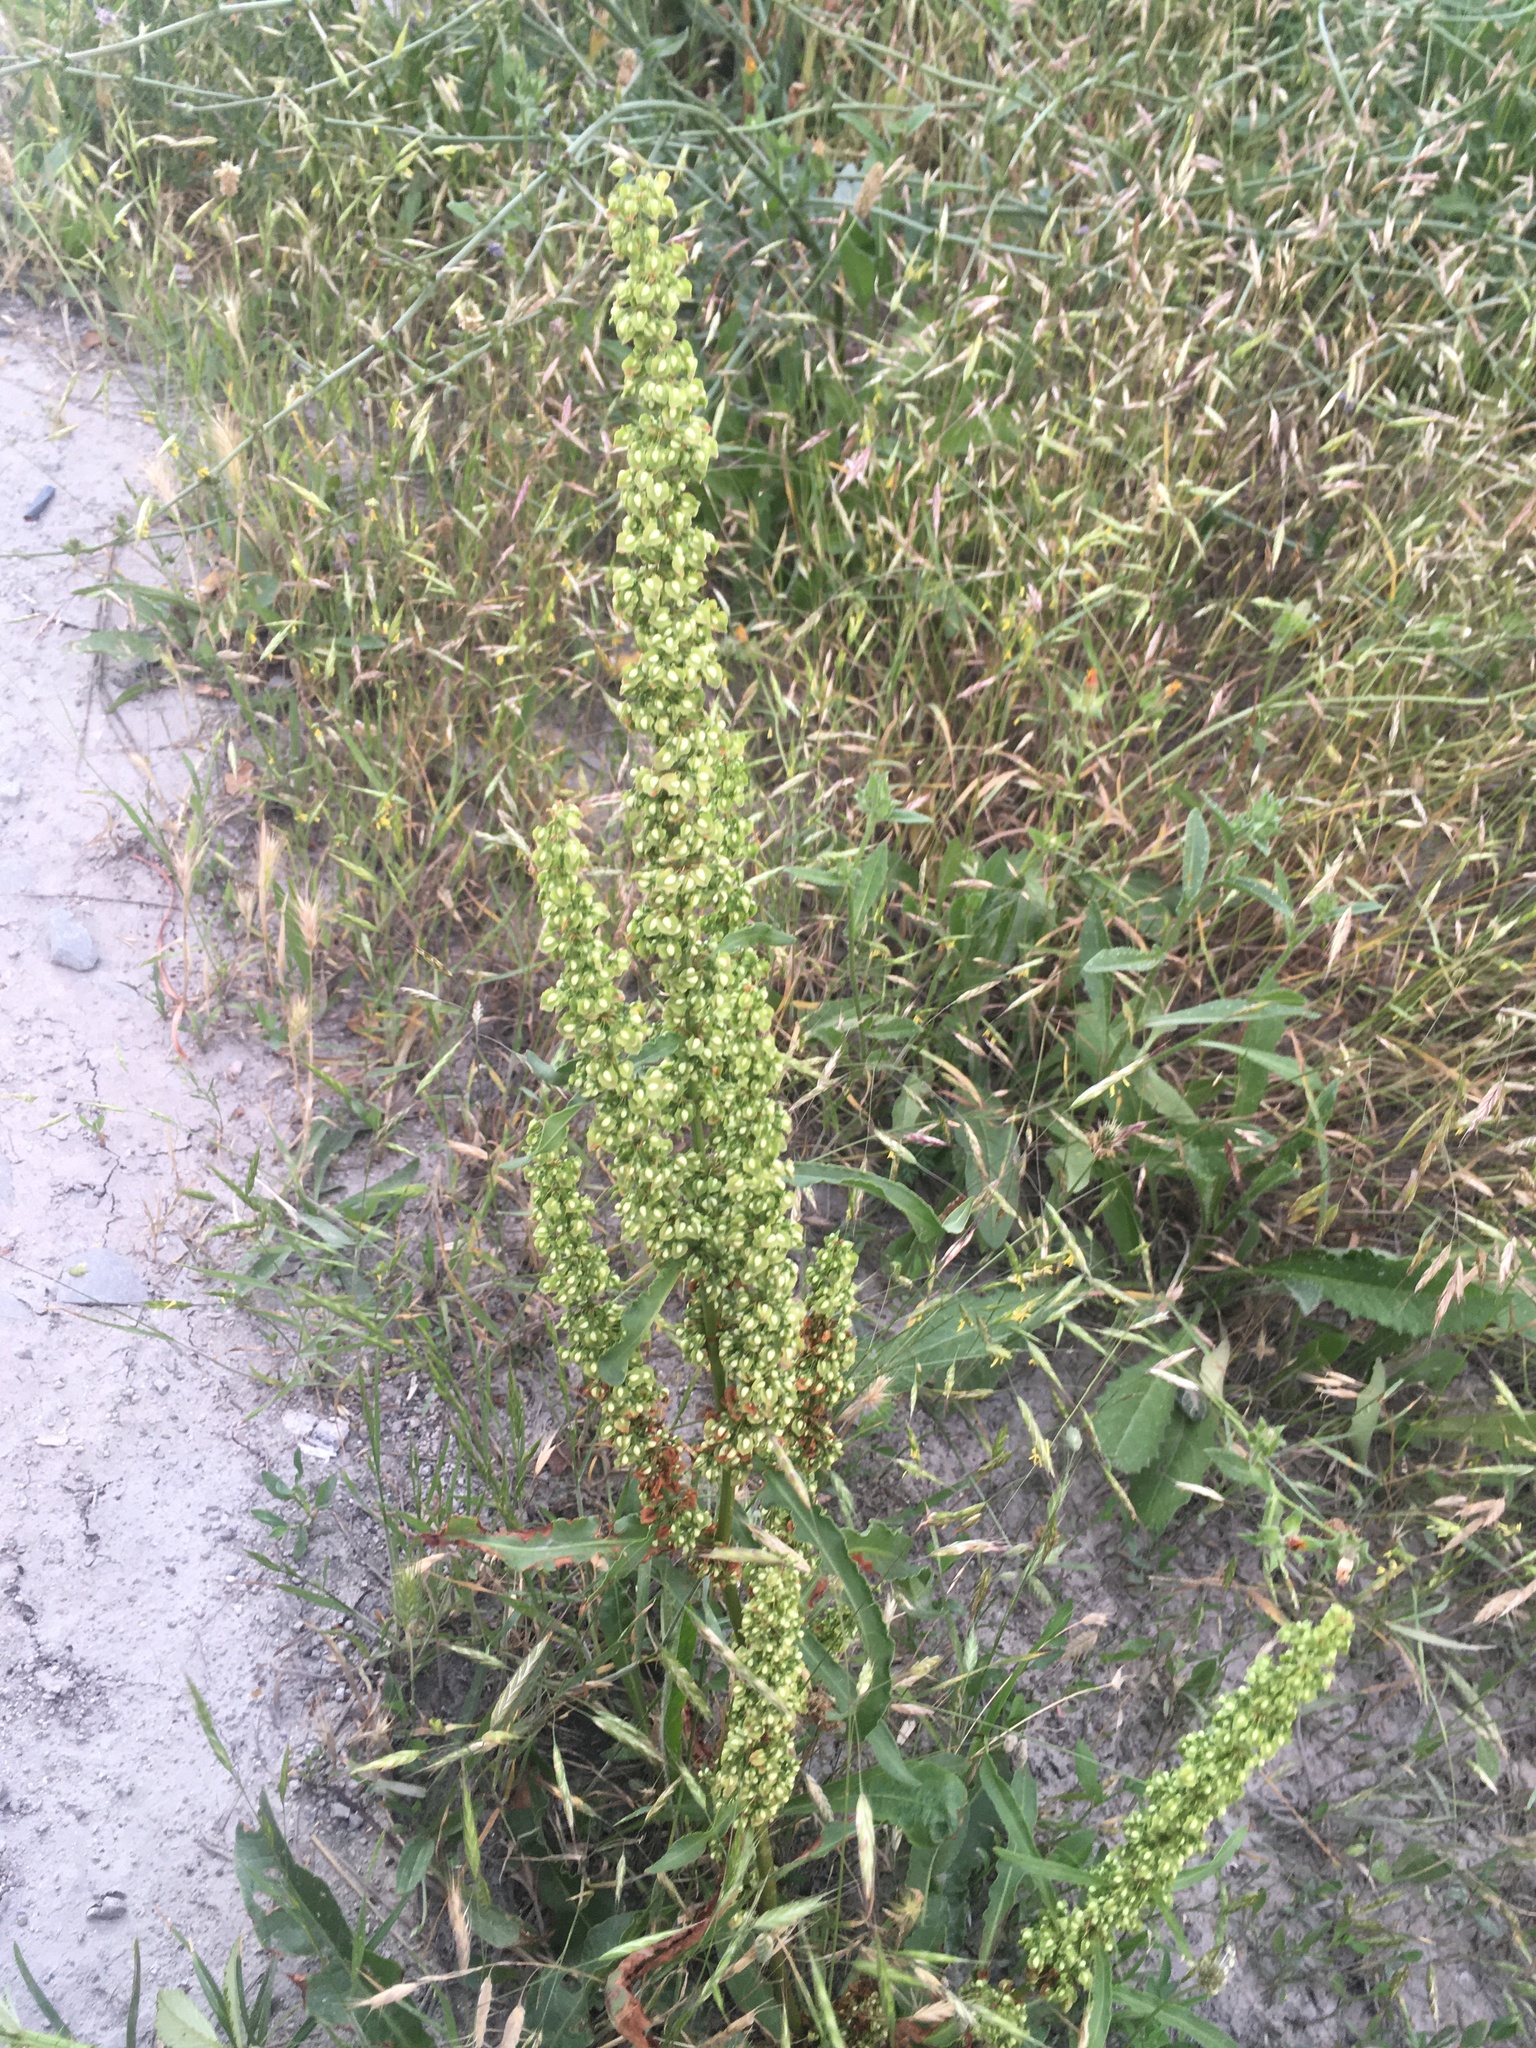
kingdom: Plantae
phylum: Tracheophyta
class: Magnoliopsida
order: Caryophyllales
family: Polygonaceae
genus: Rumex
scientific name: Rumex crispus
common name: Curled dock
